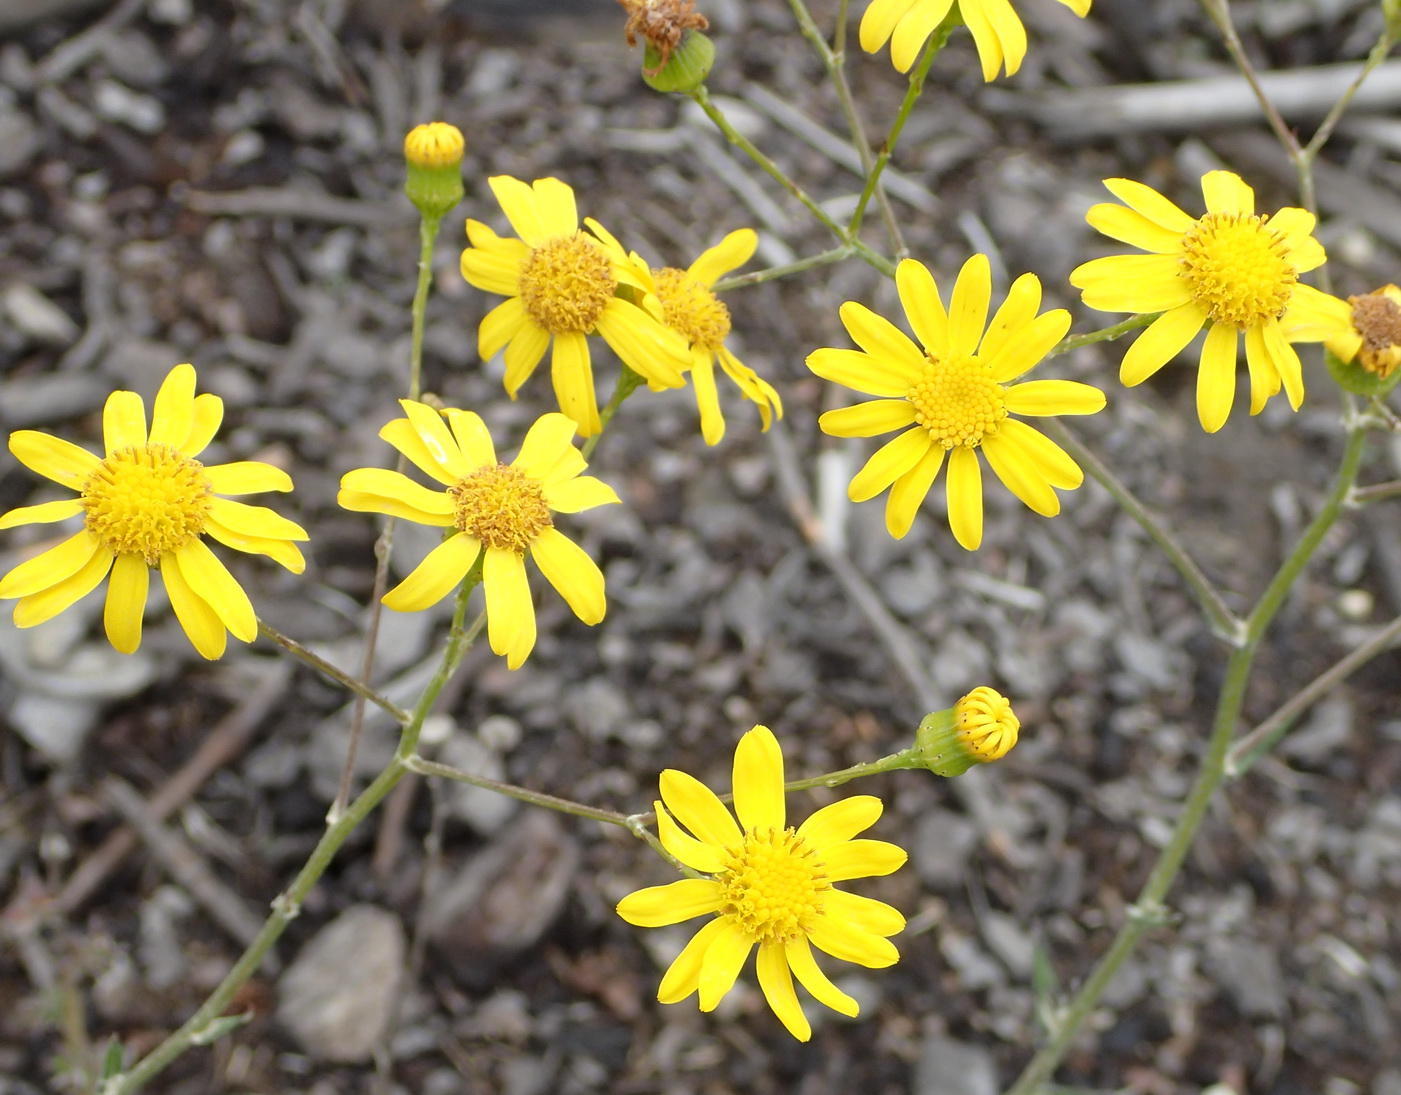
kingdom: Plantae
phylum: Tracheophyta
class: Magnoliopsida
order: Asterales
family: Asteraceae
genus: Senecio
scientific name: Senecio ilicifolius
